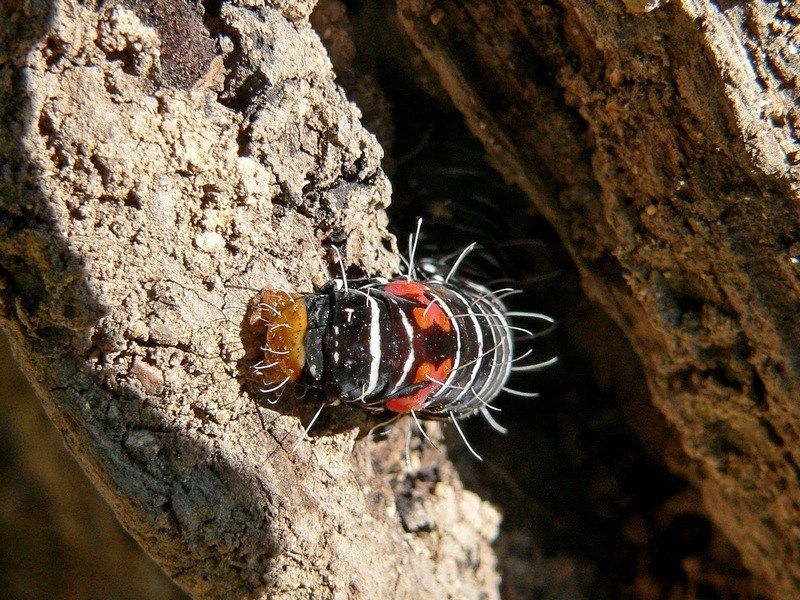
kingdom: Animalia
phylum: Arthropoda
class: Insecta
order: Lepidoptera
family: Noctuidae
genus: Comocrus
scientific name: Comocrus behri
